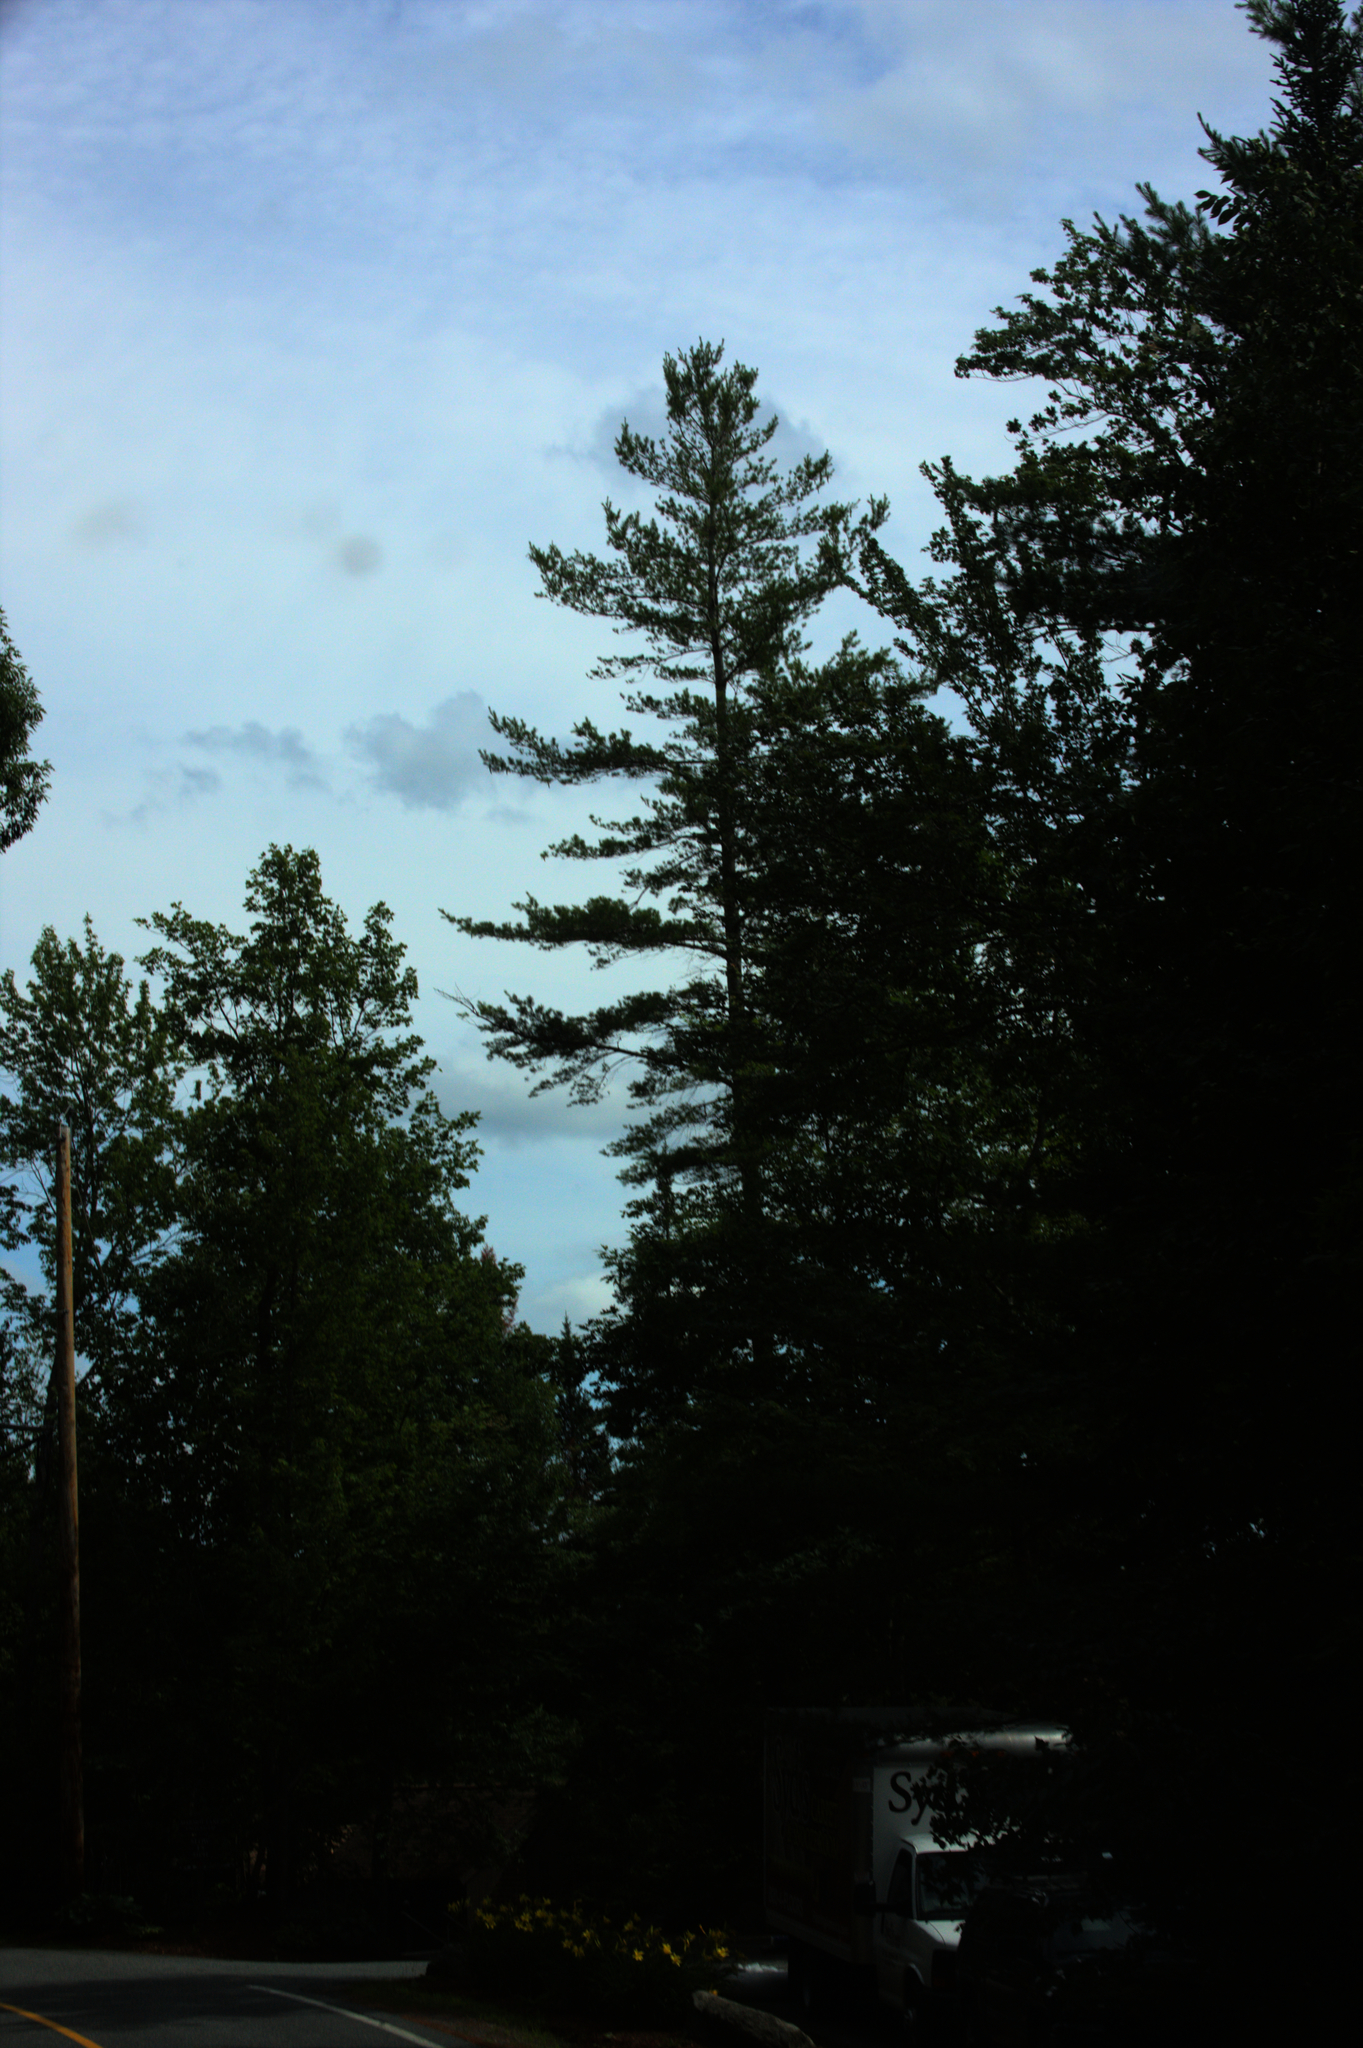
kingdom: Plantae
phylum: Tracheophyta
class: Pinopsida
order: Pinales
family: Pinaceae
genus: Pinus
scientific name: Pinus strobus
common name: Weymouth pine
